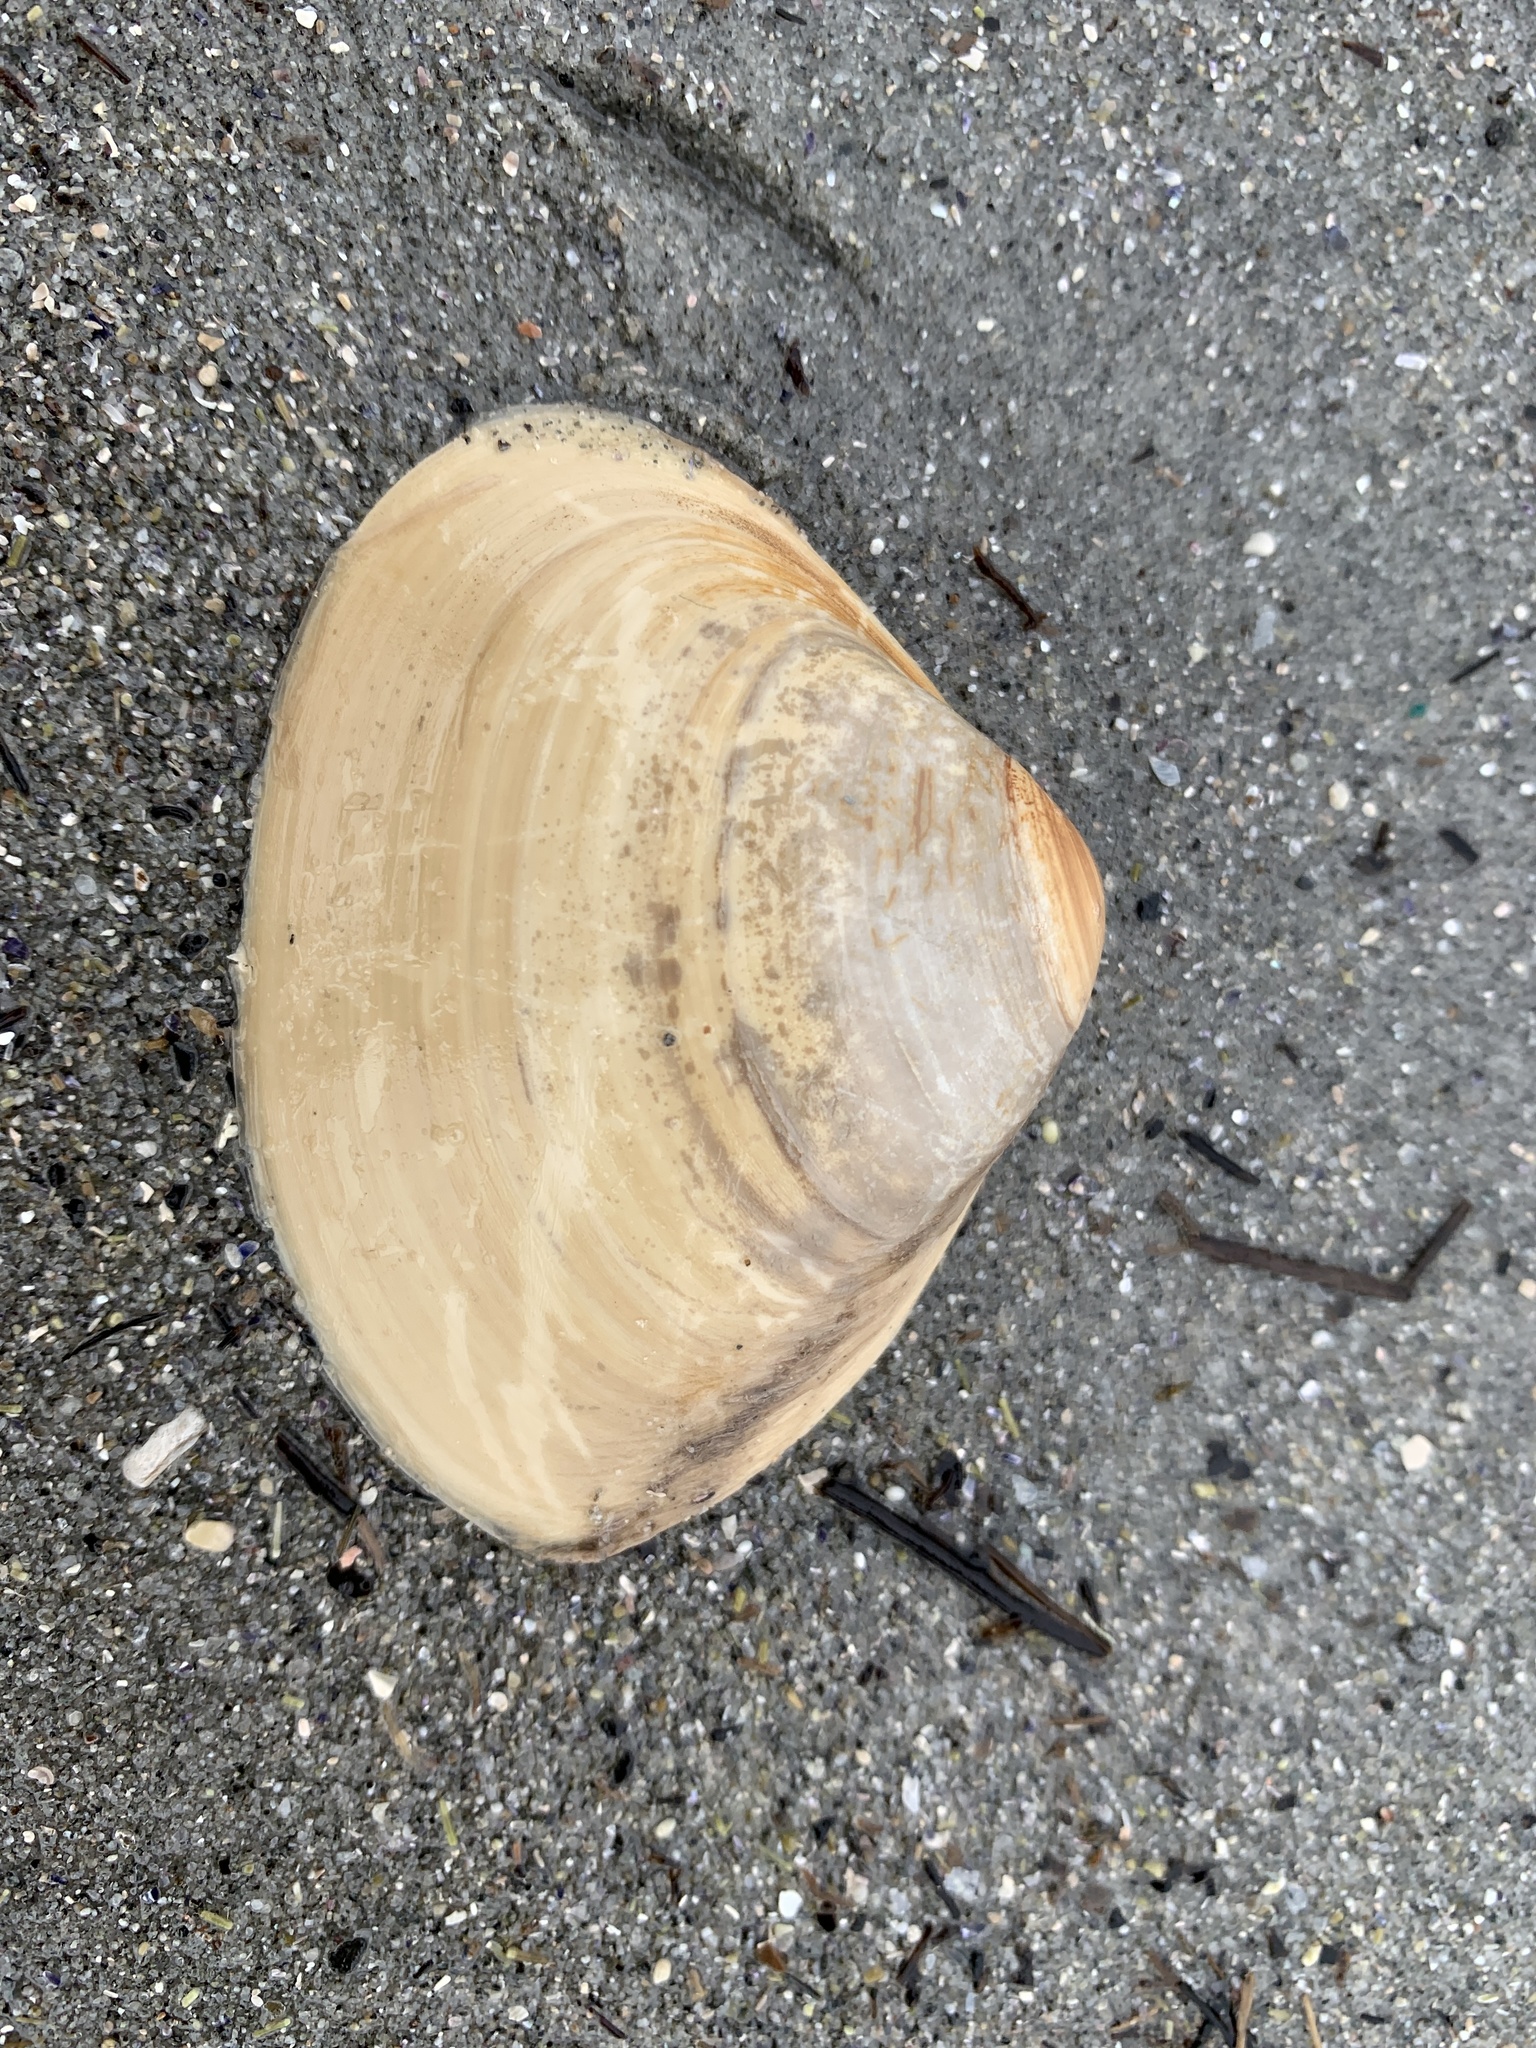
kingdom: Animalia
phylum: Mollusca
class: Bivalvia
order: Venerida
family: Mactridae
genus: Spisula
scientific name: Spisula solidissima
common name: Atlantic surf clam
